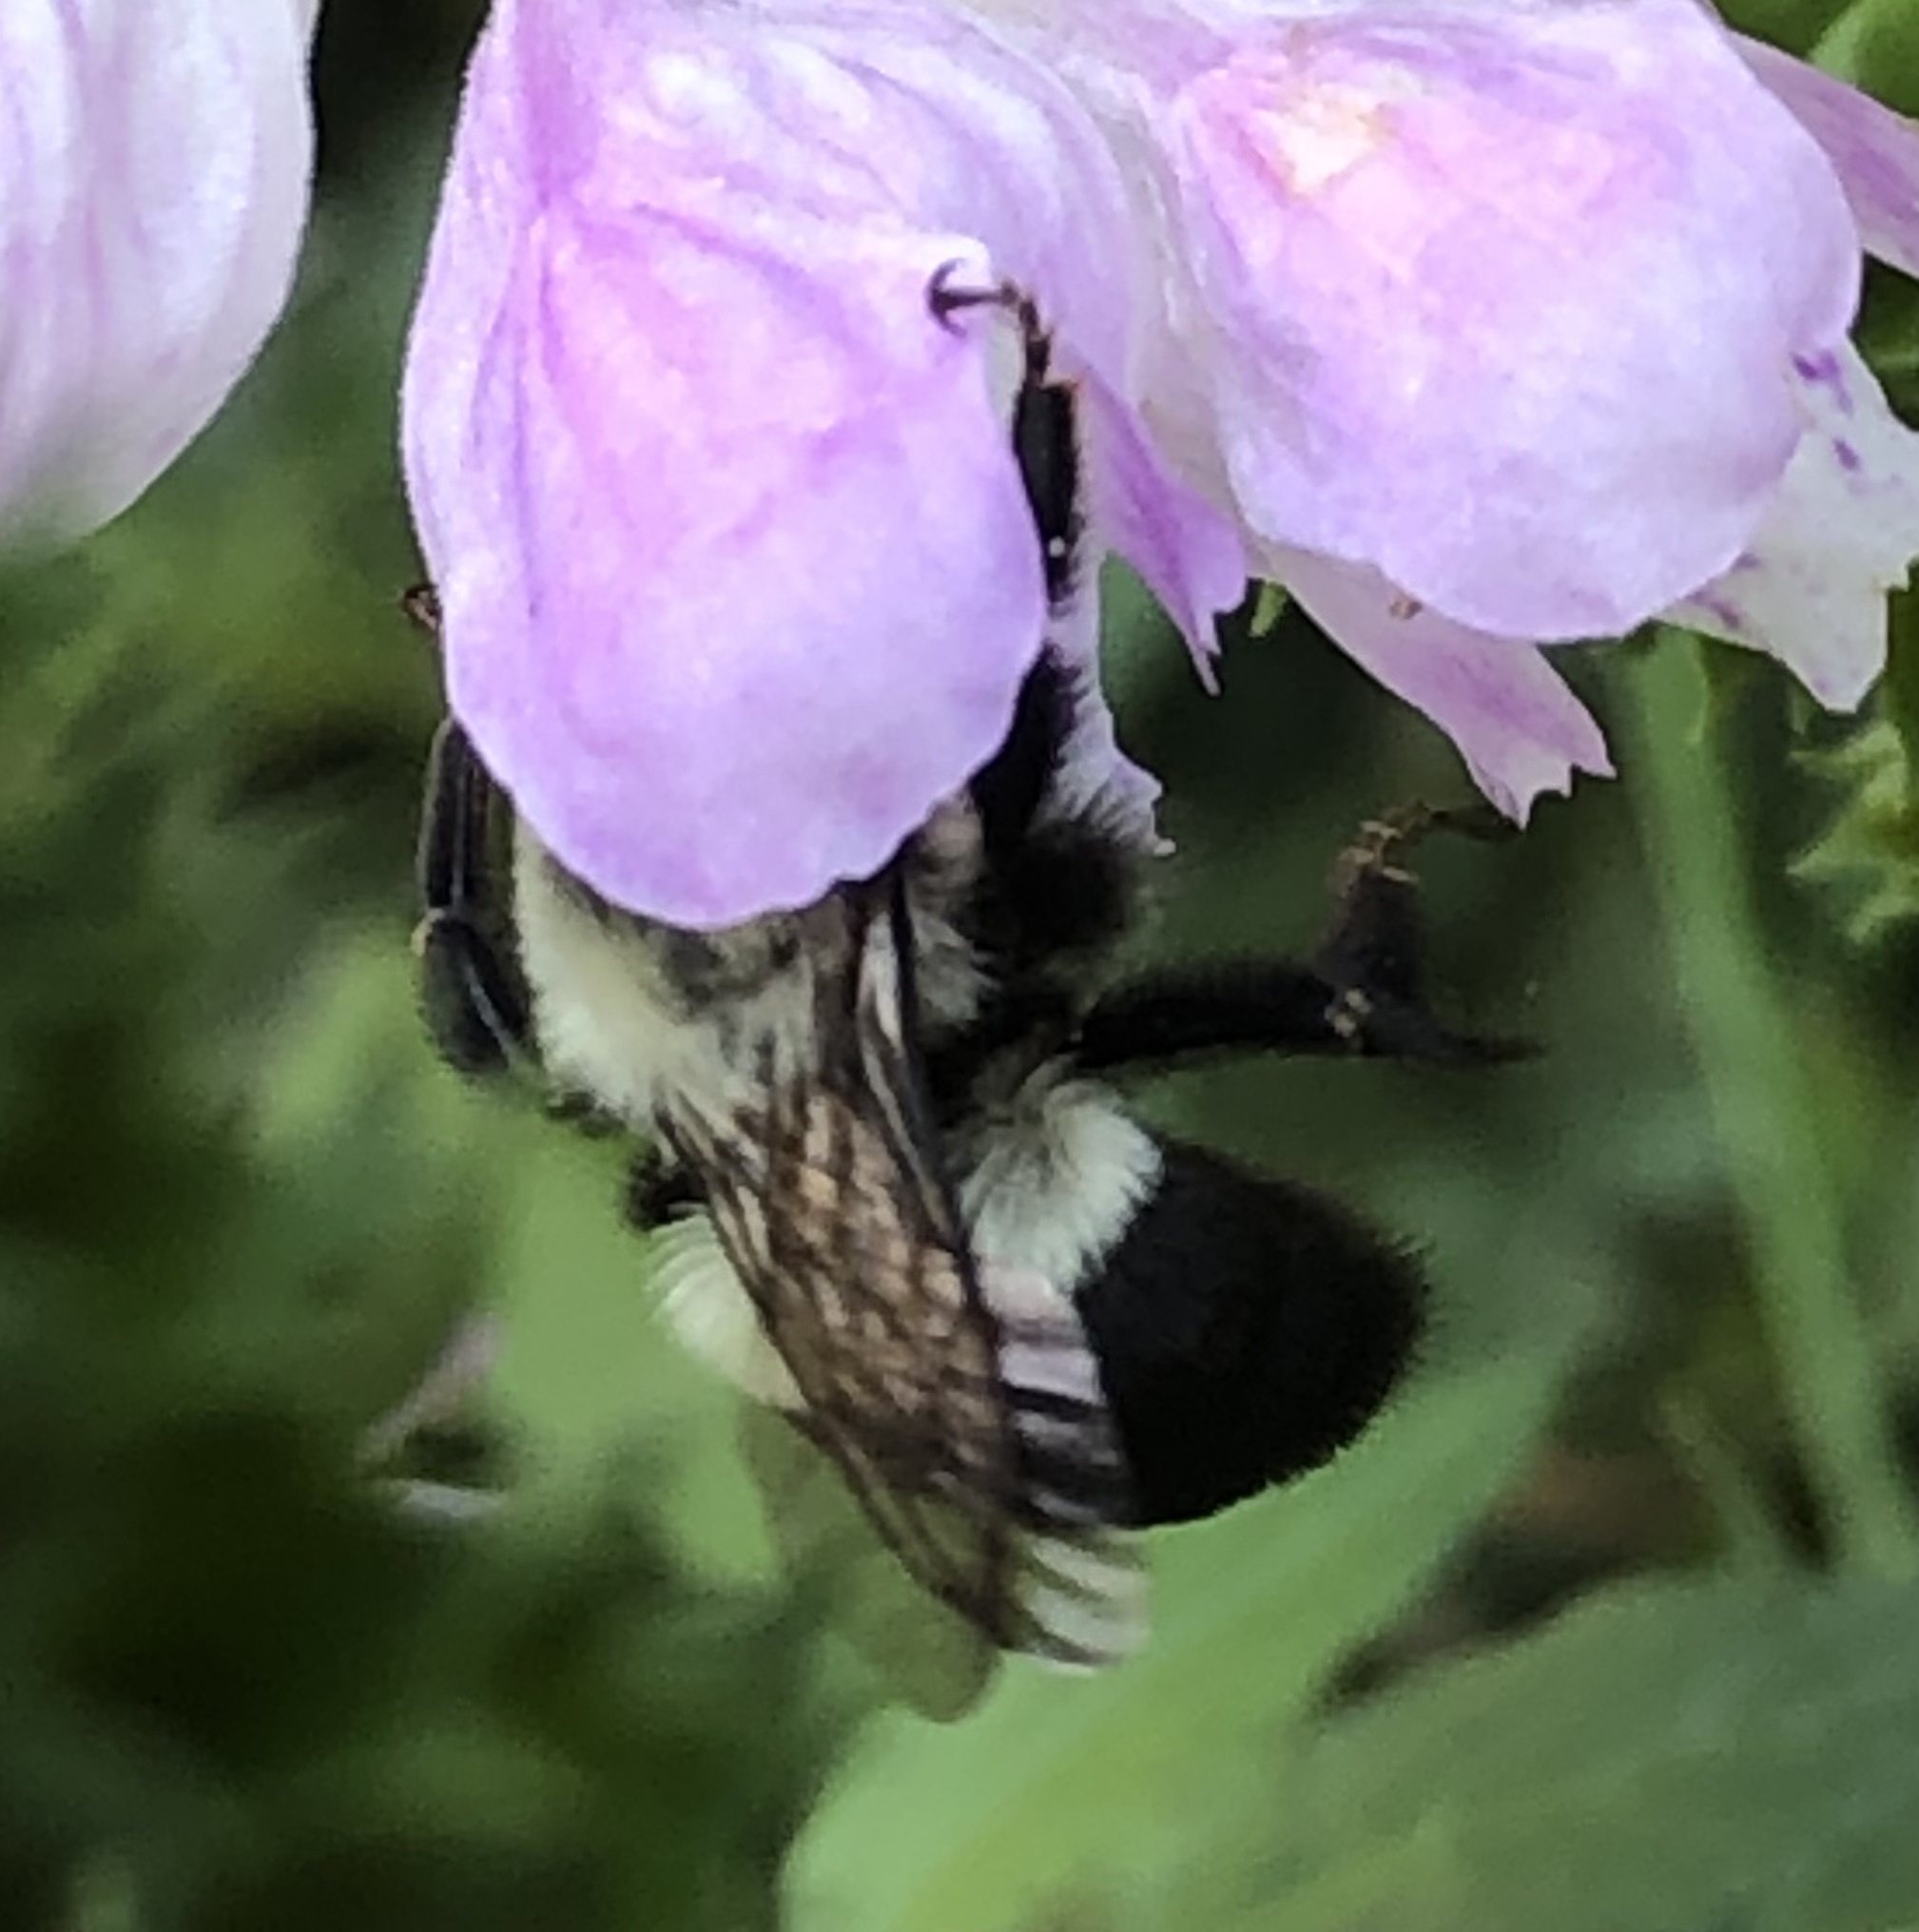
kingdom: Animalia
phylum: Arthropoda
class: Insecta
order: Hymenoptera
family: Apidae
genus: Bombus
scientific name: Bombus impatiens
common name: Common eastern bumble bee
